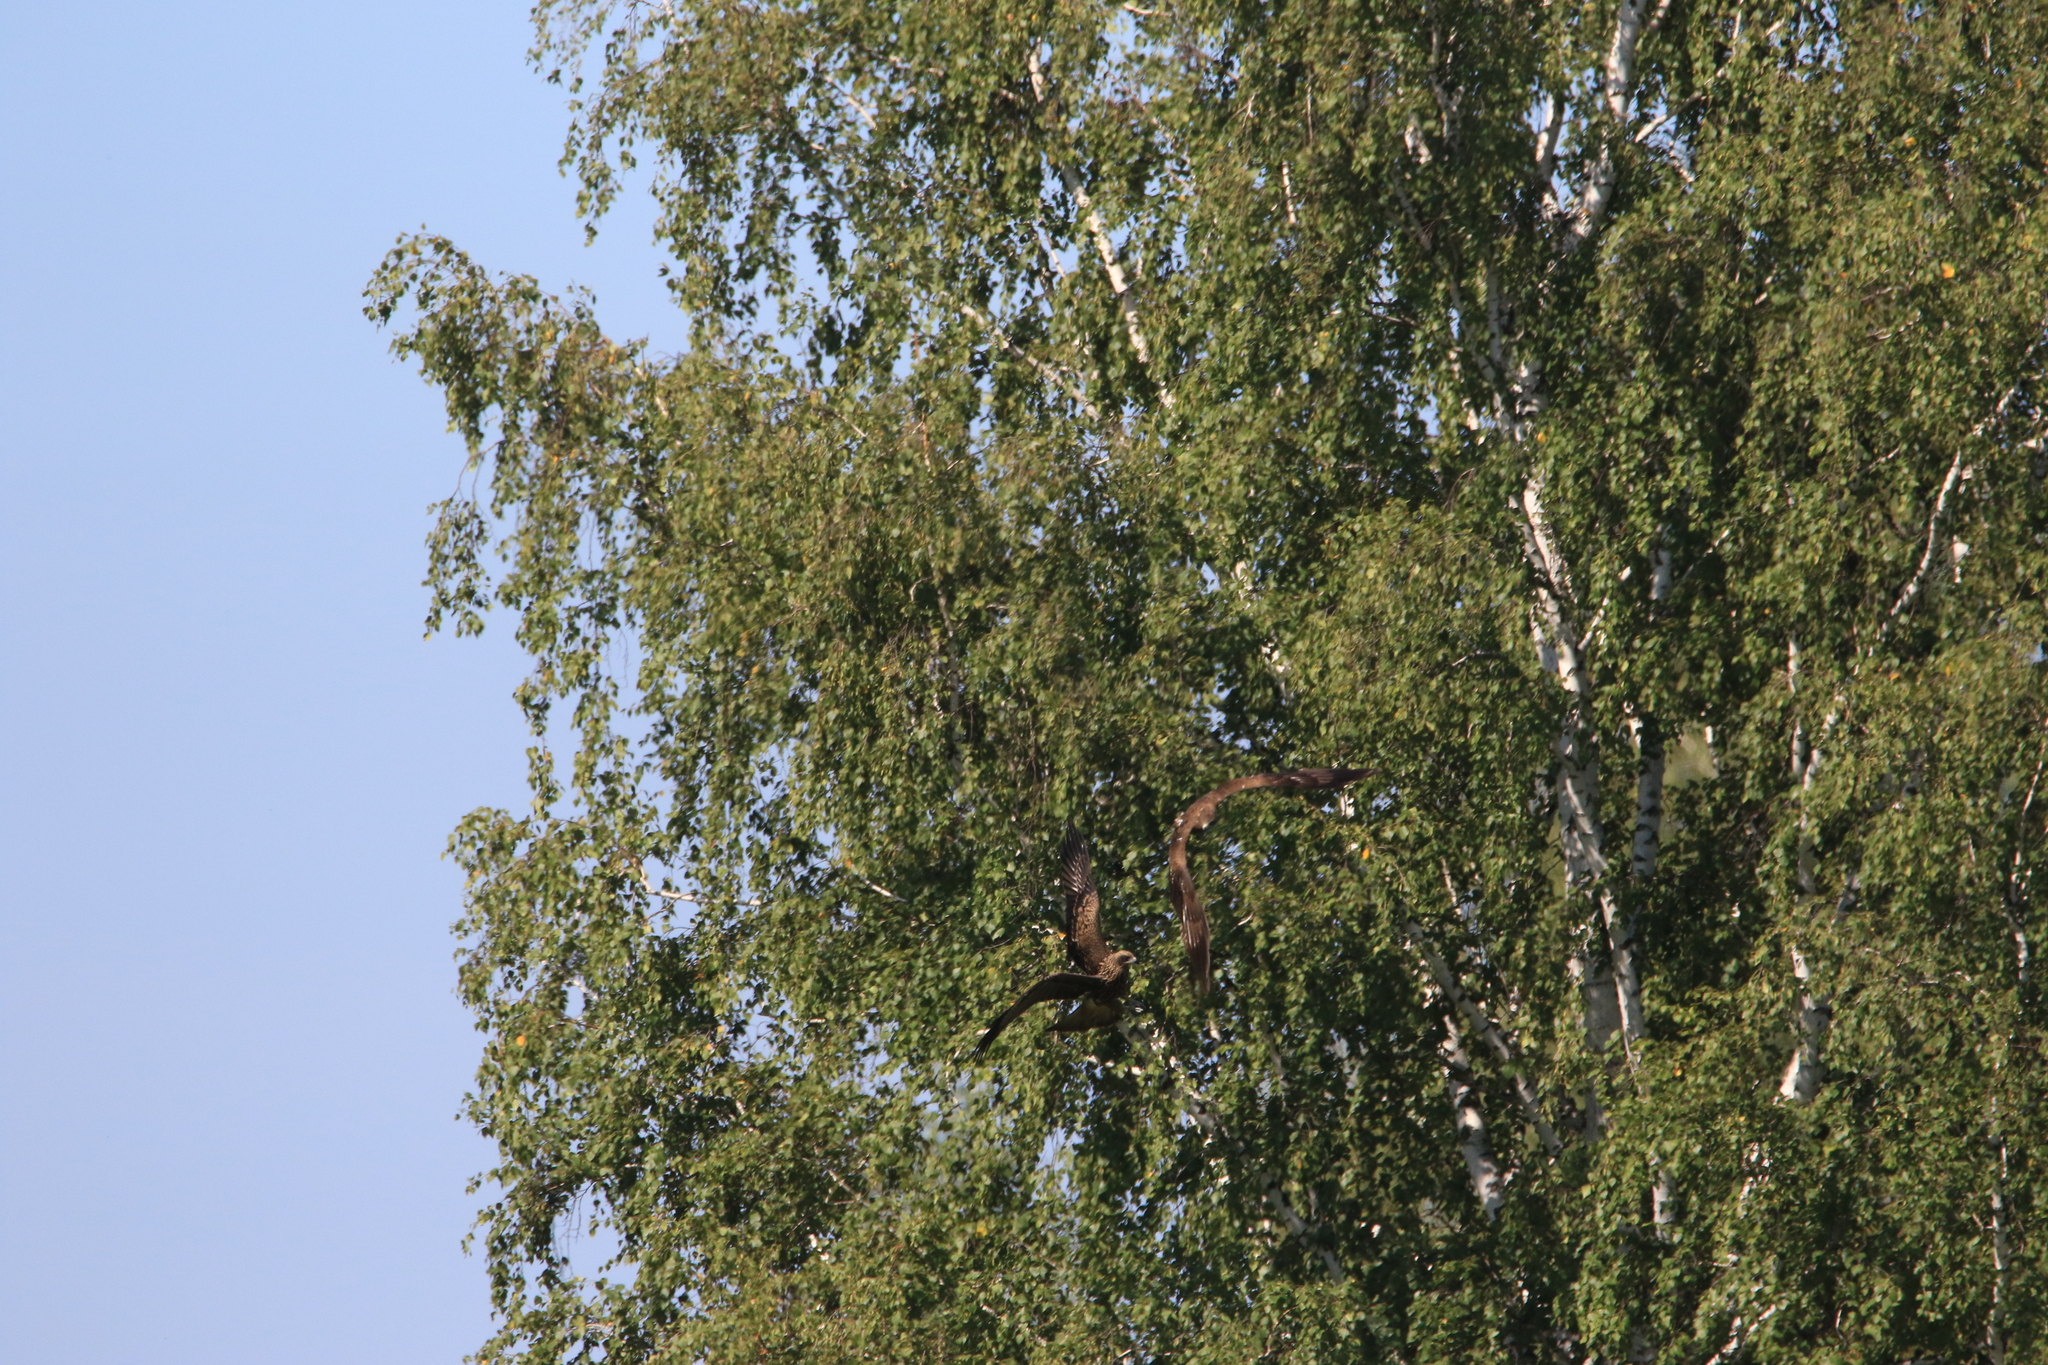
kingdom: Animalia
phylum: Chordata
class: Aves
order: Accipitriformes
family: Accipitridae
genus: Milvus
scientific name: Milvus migrans
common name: Black kite
